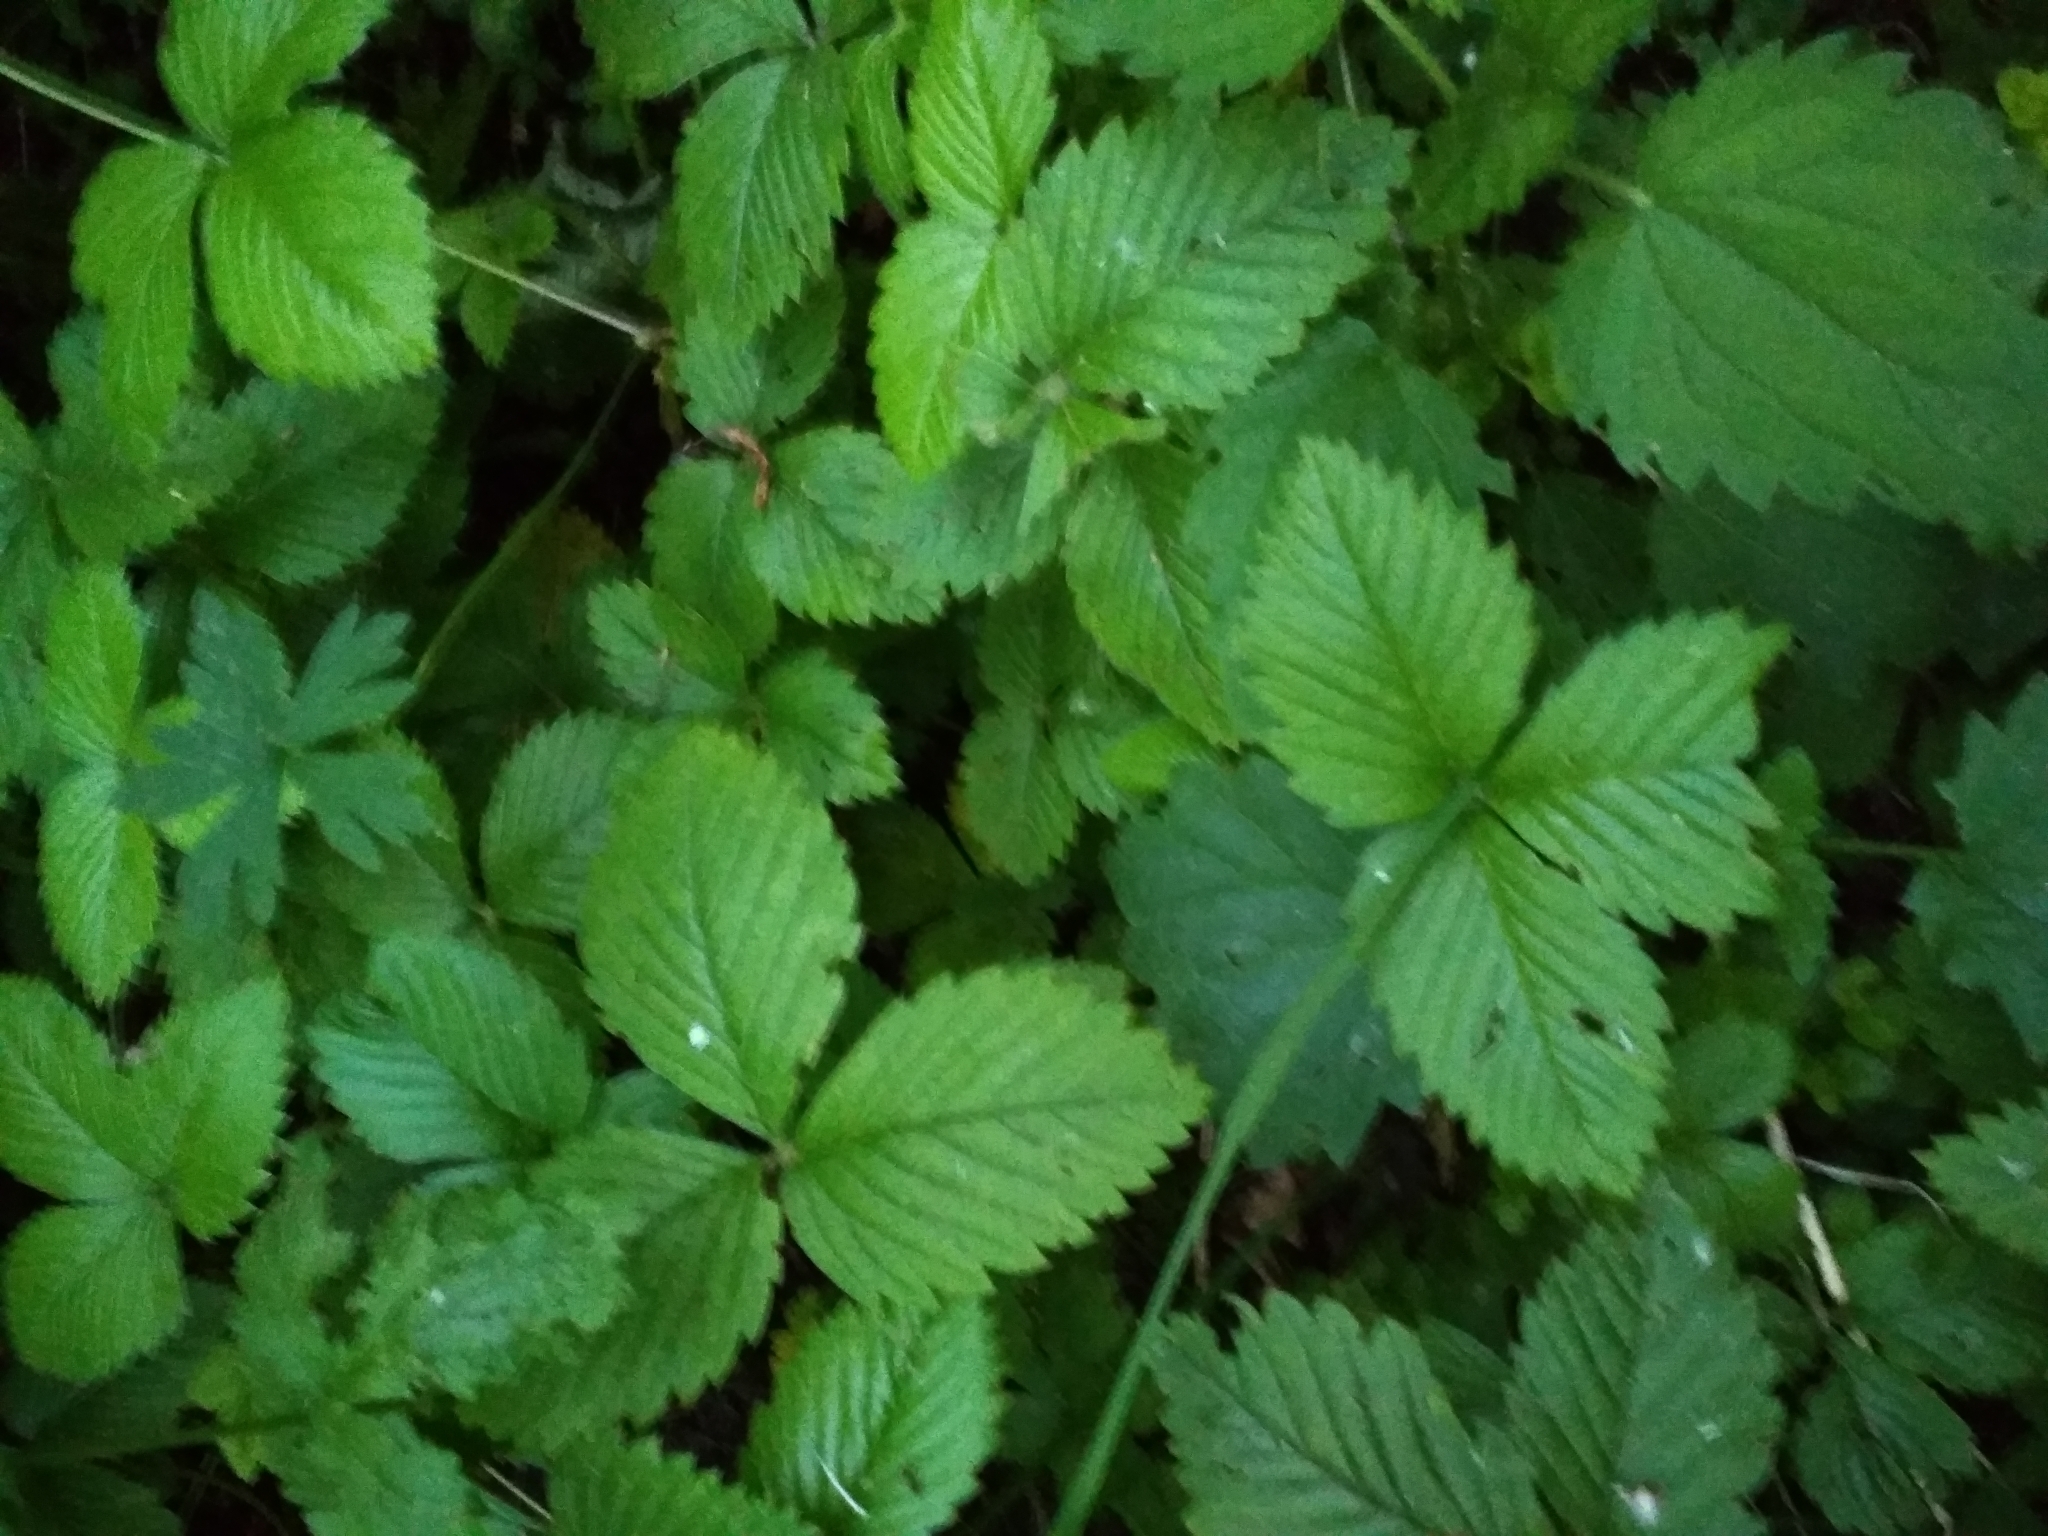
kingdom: Plantae
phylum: Tracheophyta
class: Magnoliopsida
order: Rosales
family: Rosaceae
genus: Fragaria
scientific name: Fragaria moschata
